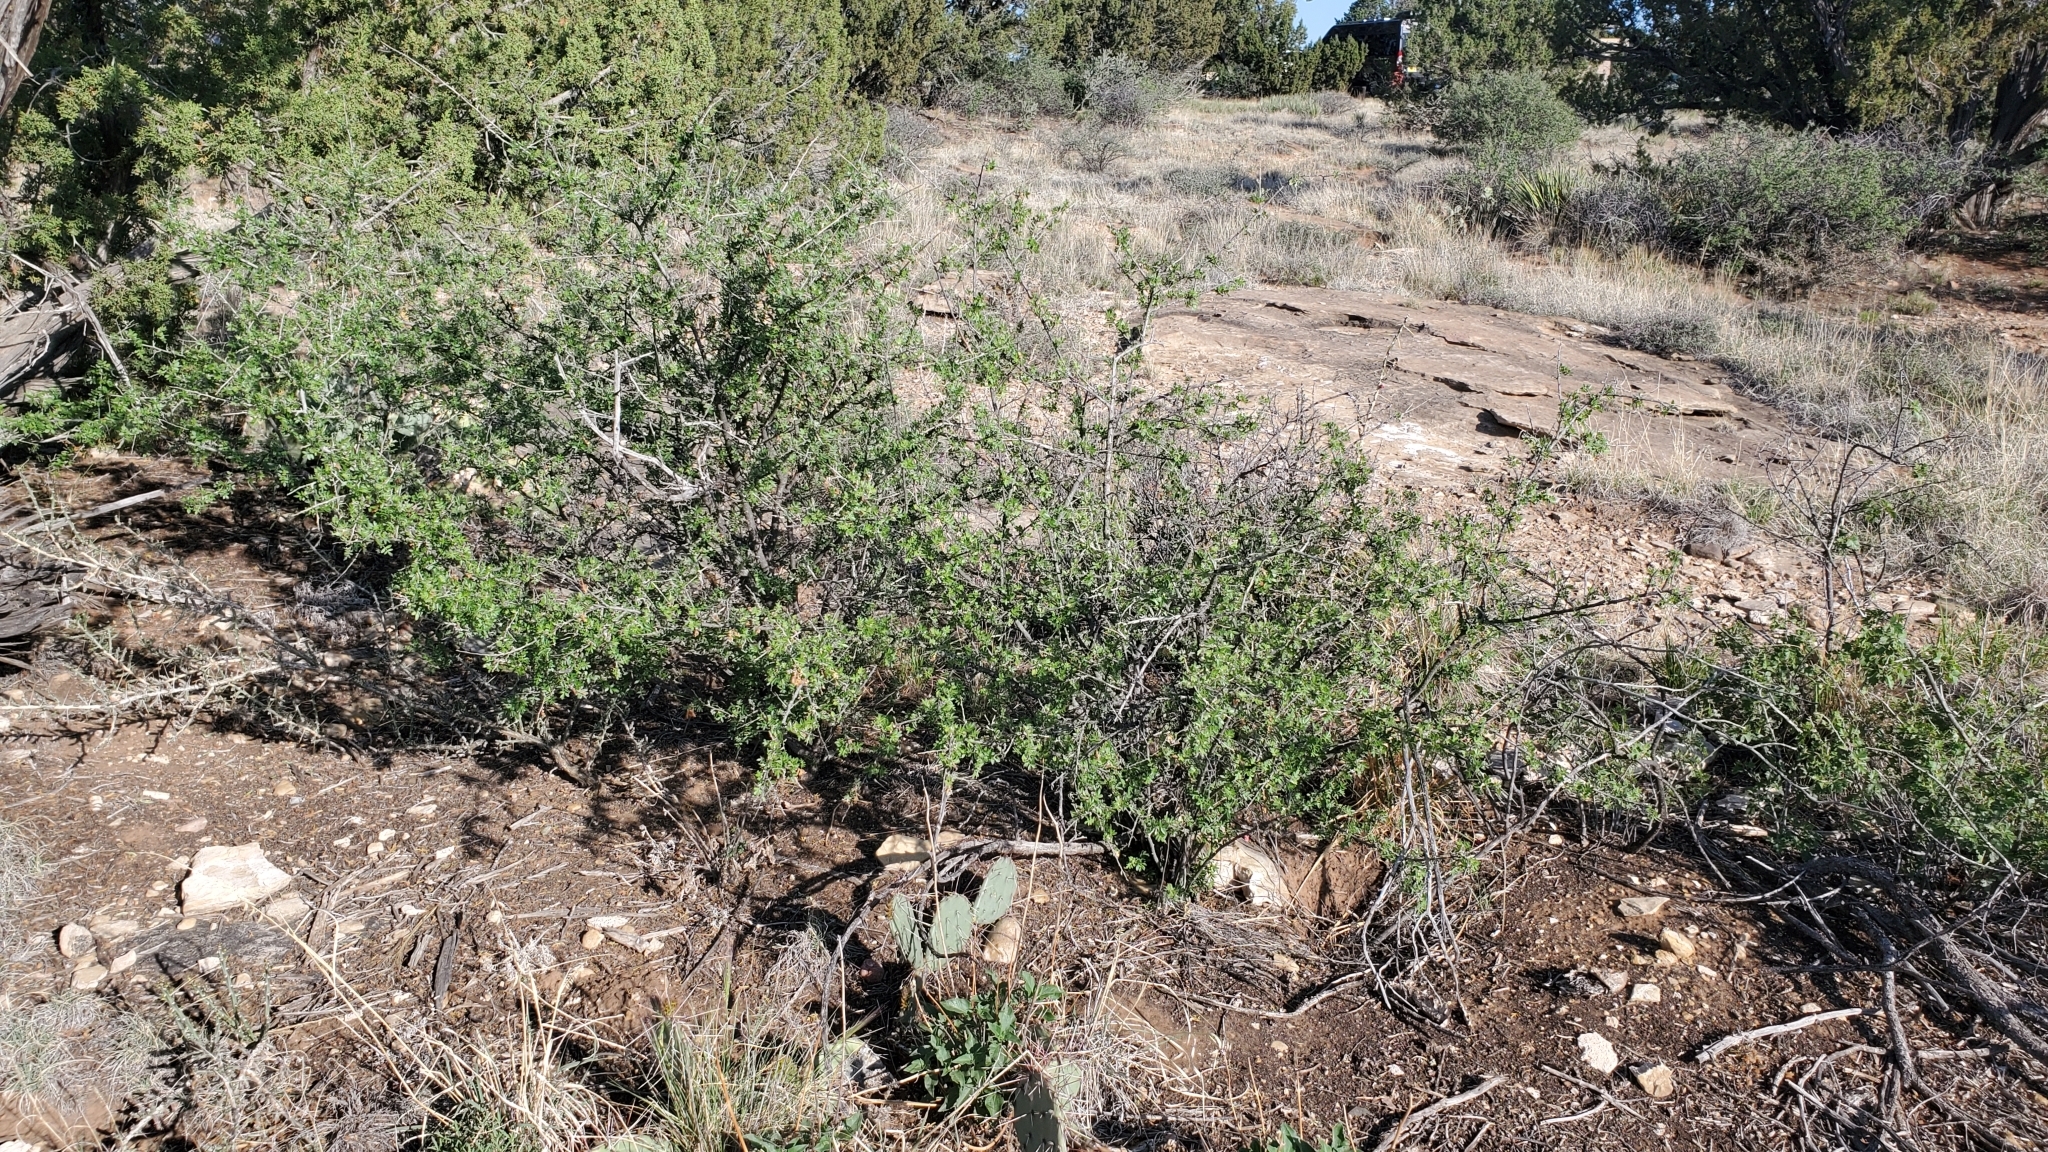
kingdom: Plantae
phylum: Tracheophyta
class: Magnoliopsida
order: Sapindales
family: Anacardiaceae
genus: Rhus
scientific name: Rhus microphylla
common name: Desert sumac
